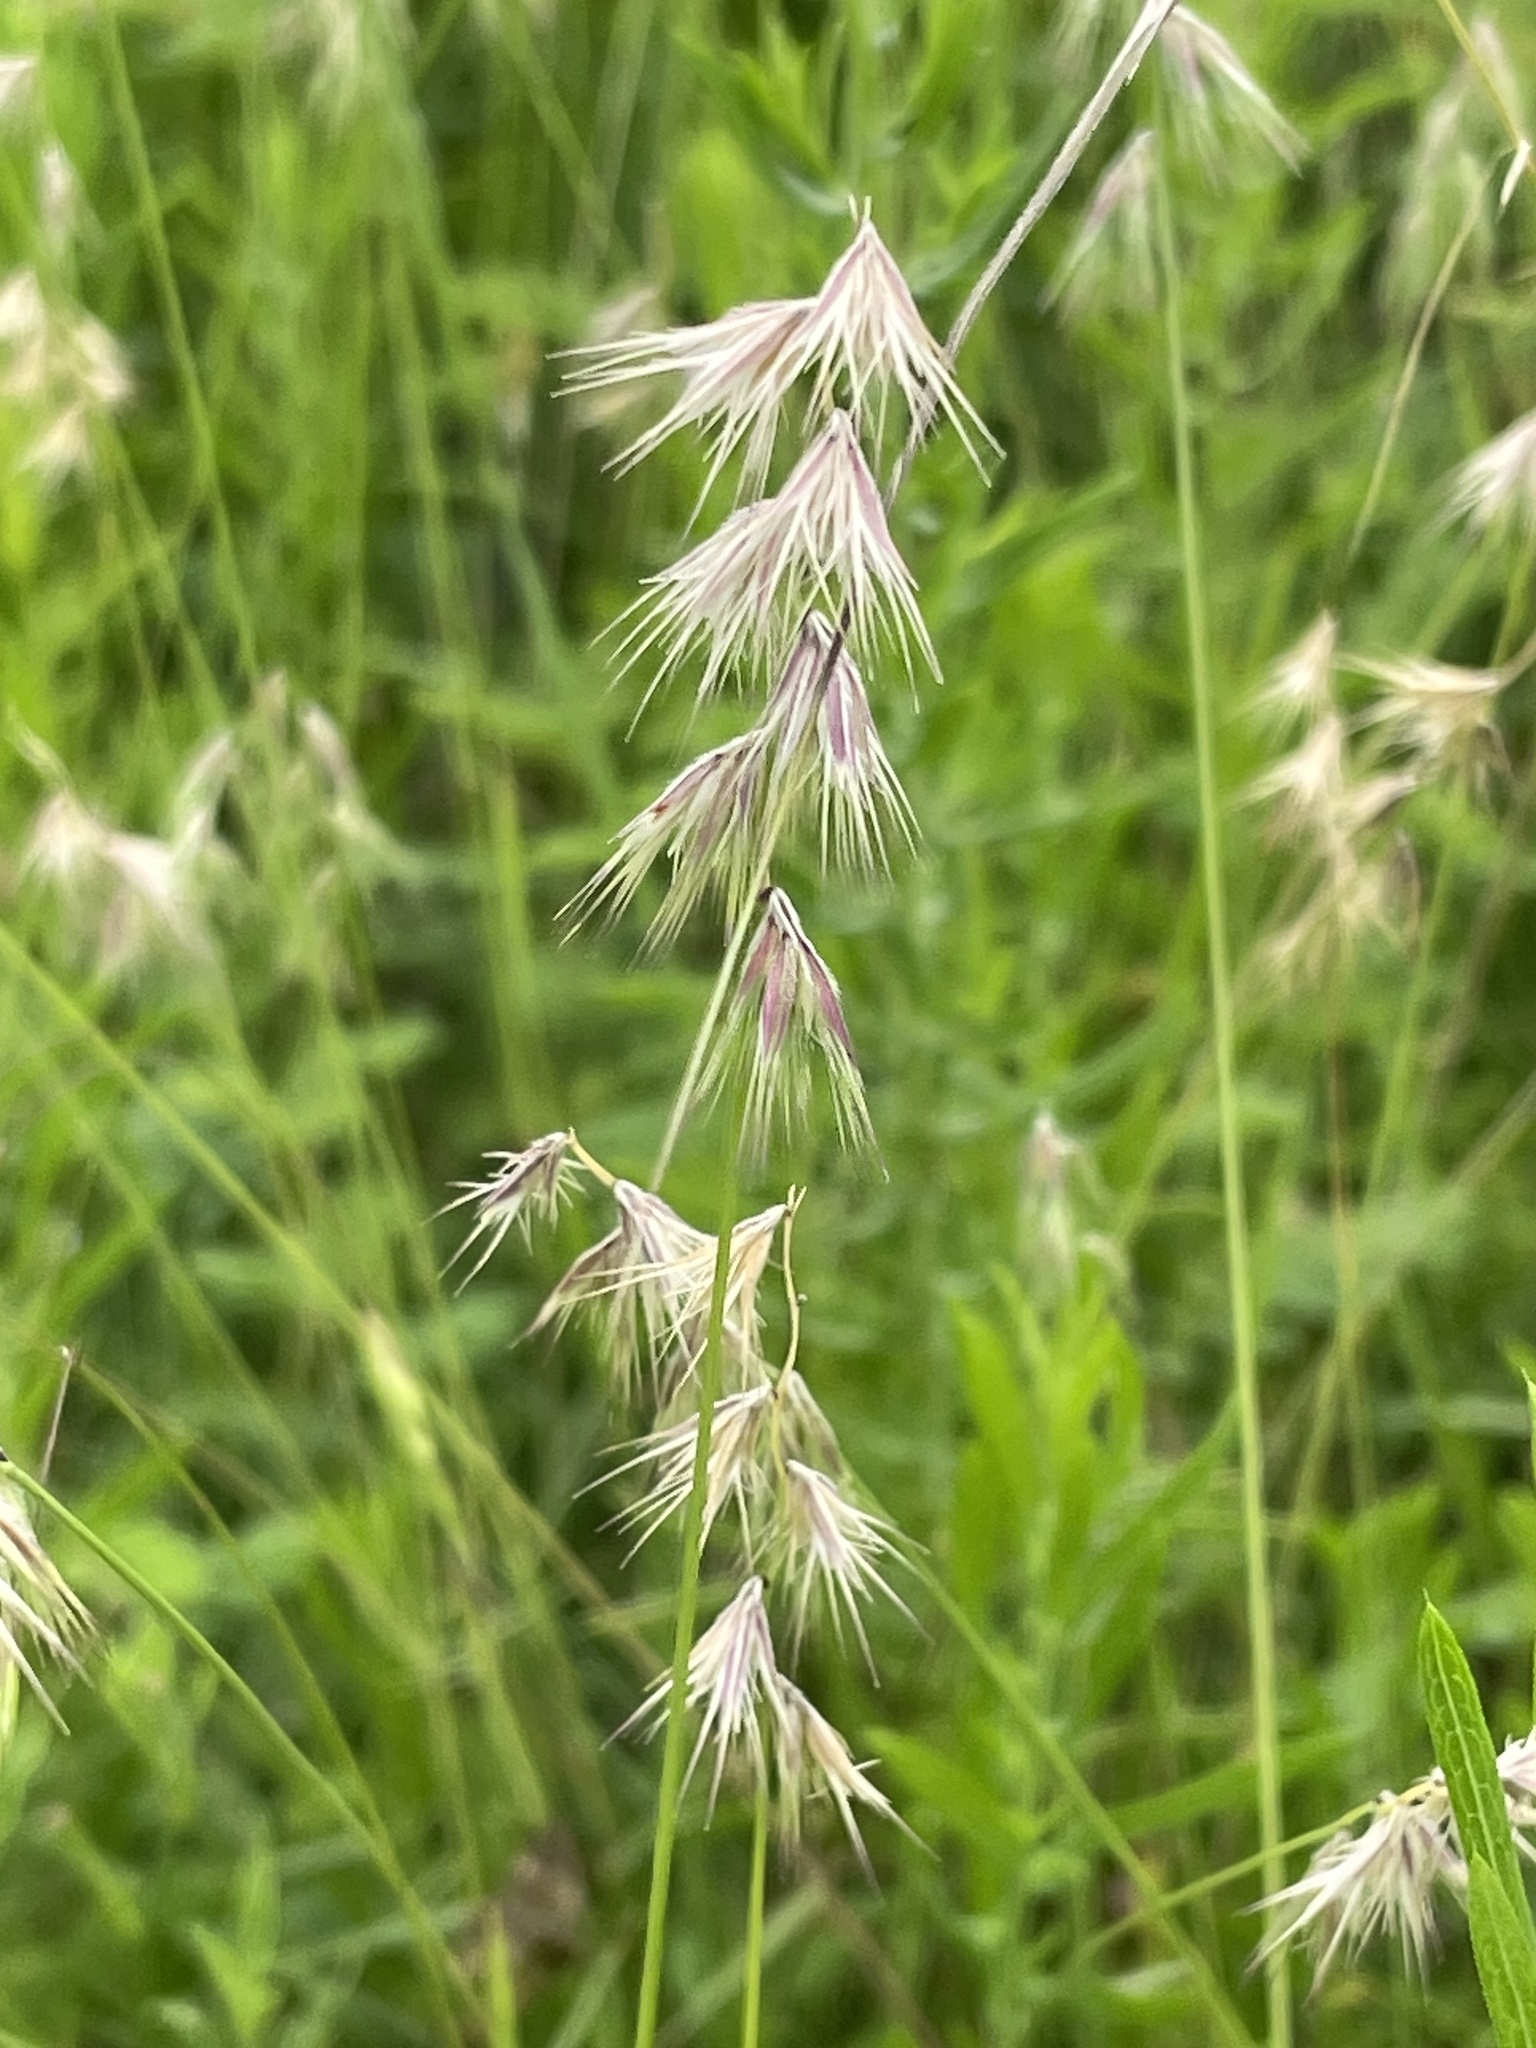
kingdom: Plantae
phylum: Tracheophyta
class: Liliopsida
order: Poales
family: Poaceae
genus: Bouteloua
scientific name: Bouteloua rigidiseta
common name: Texas grama
